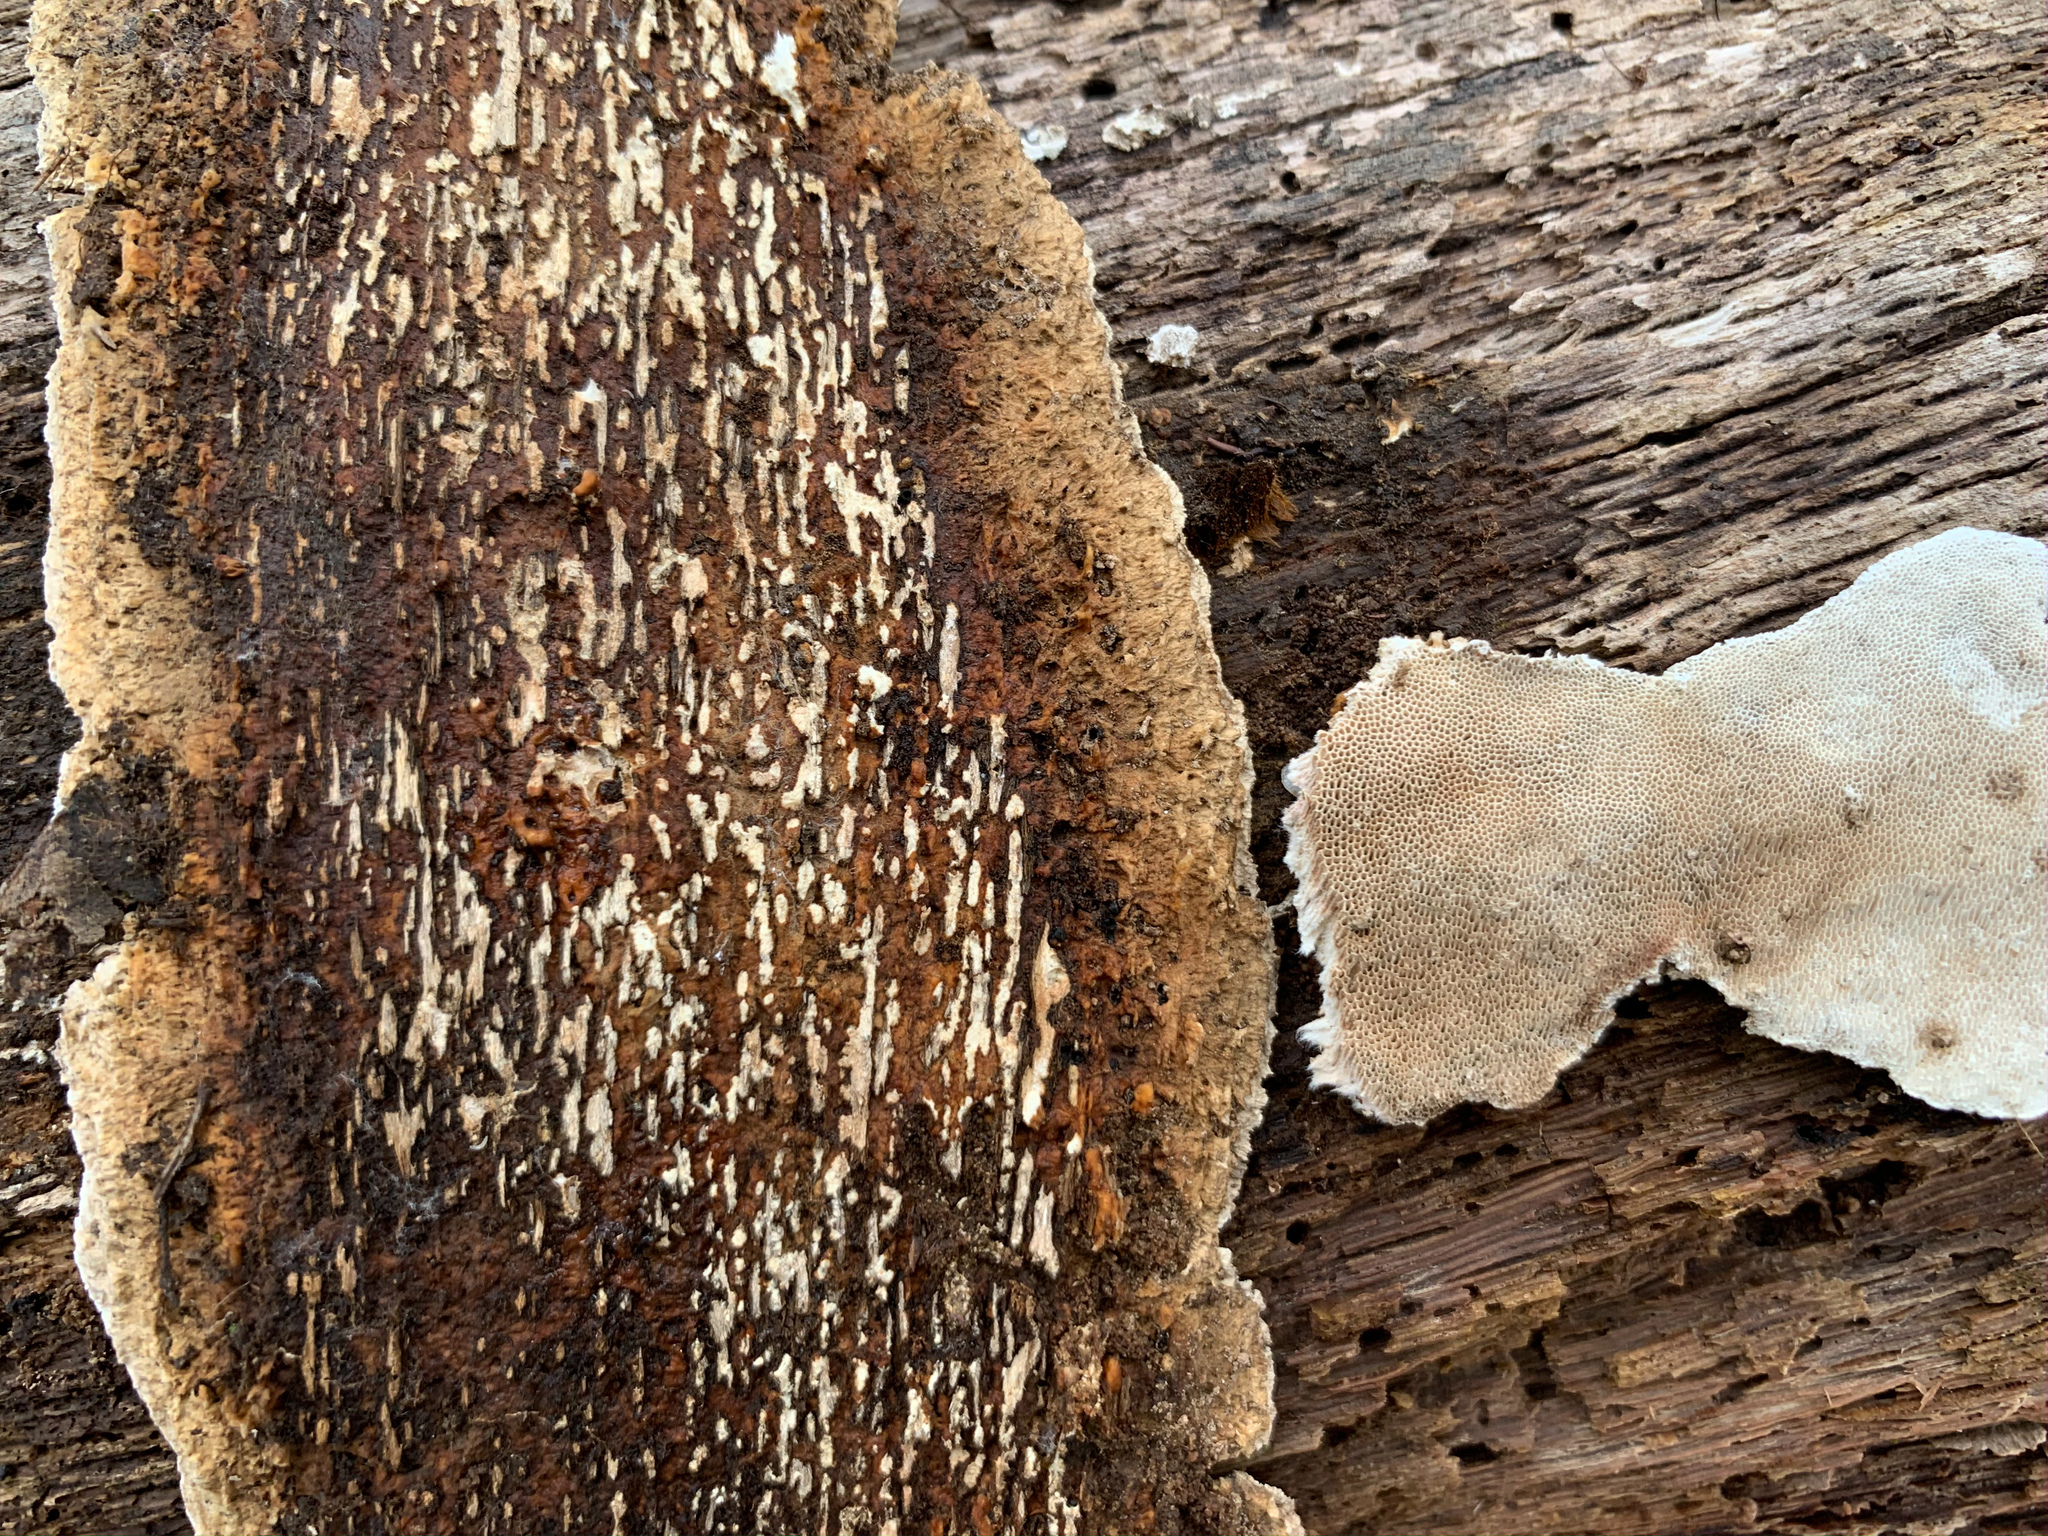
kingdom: Fungi
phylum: Basidiomycota
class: Agaricomycetes
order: Polyporales
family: Polyporaceae
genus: Perenniporia
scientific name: Perenniporia medulla-panis
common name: Pancake crust
